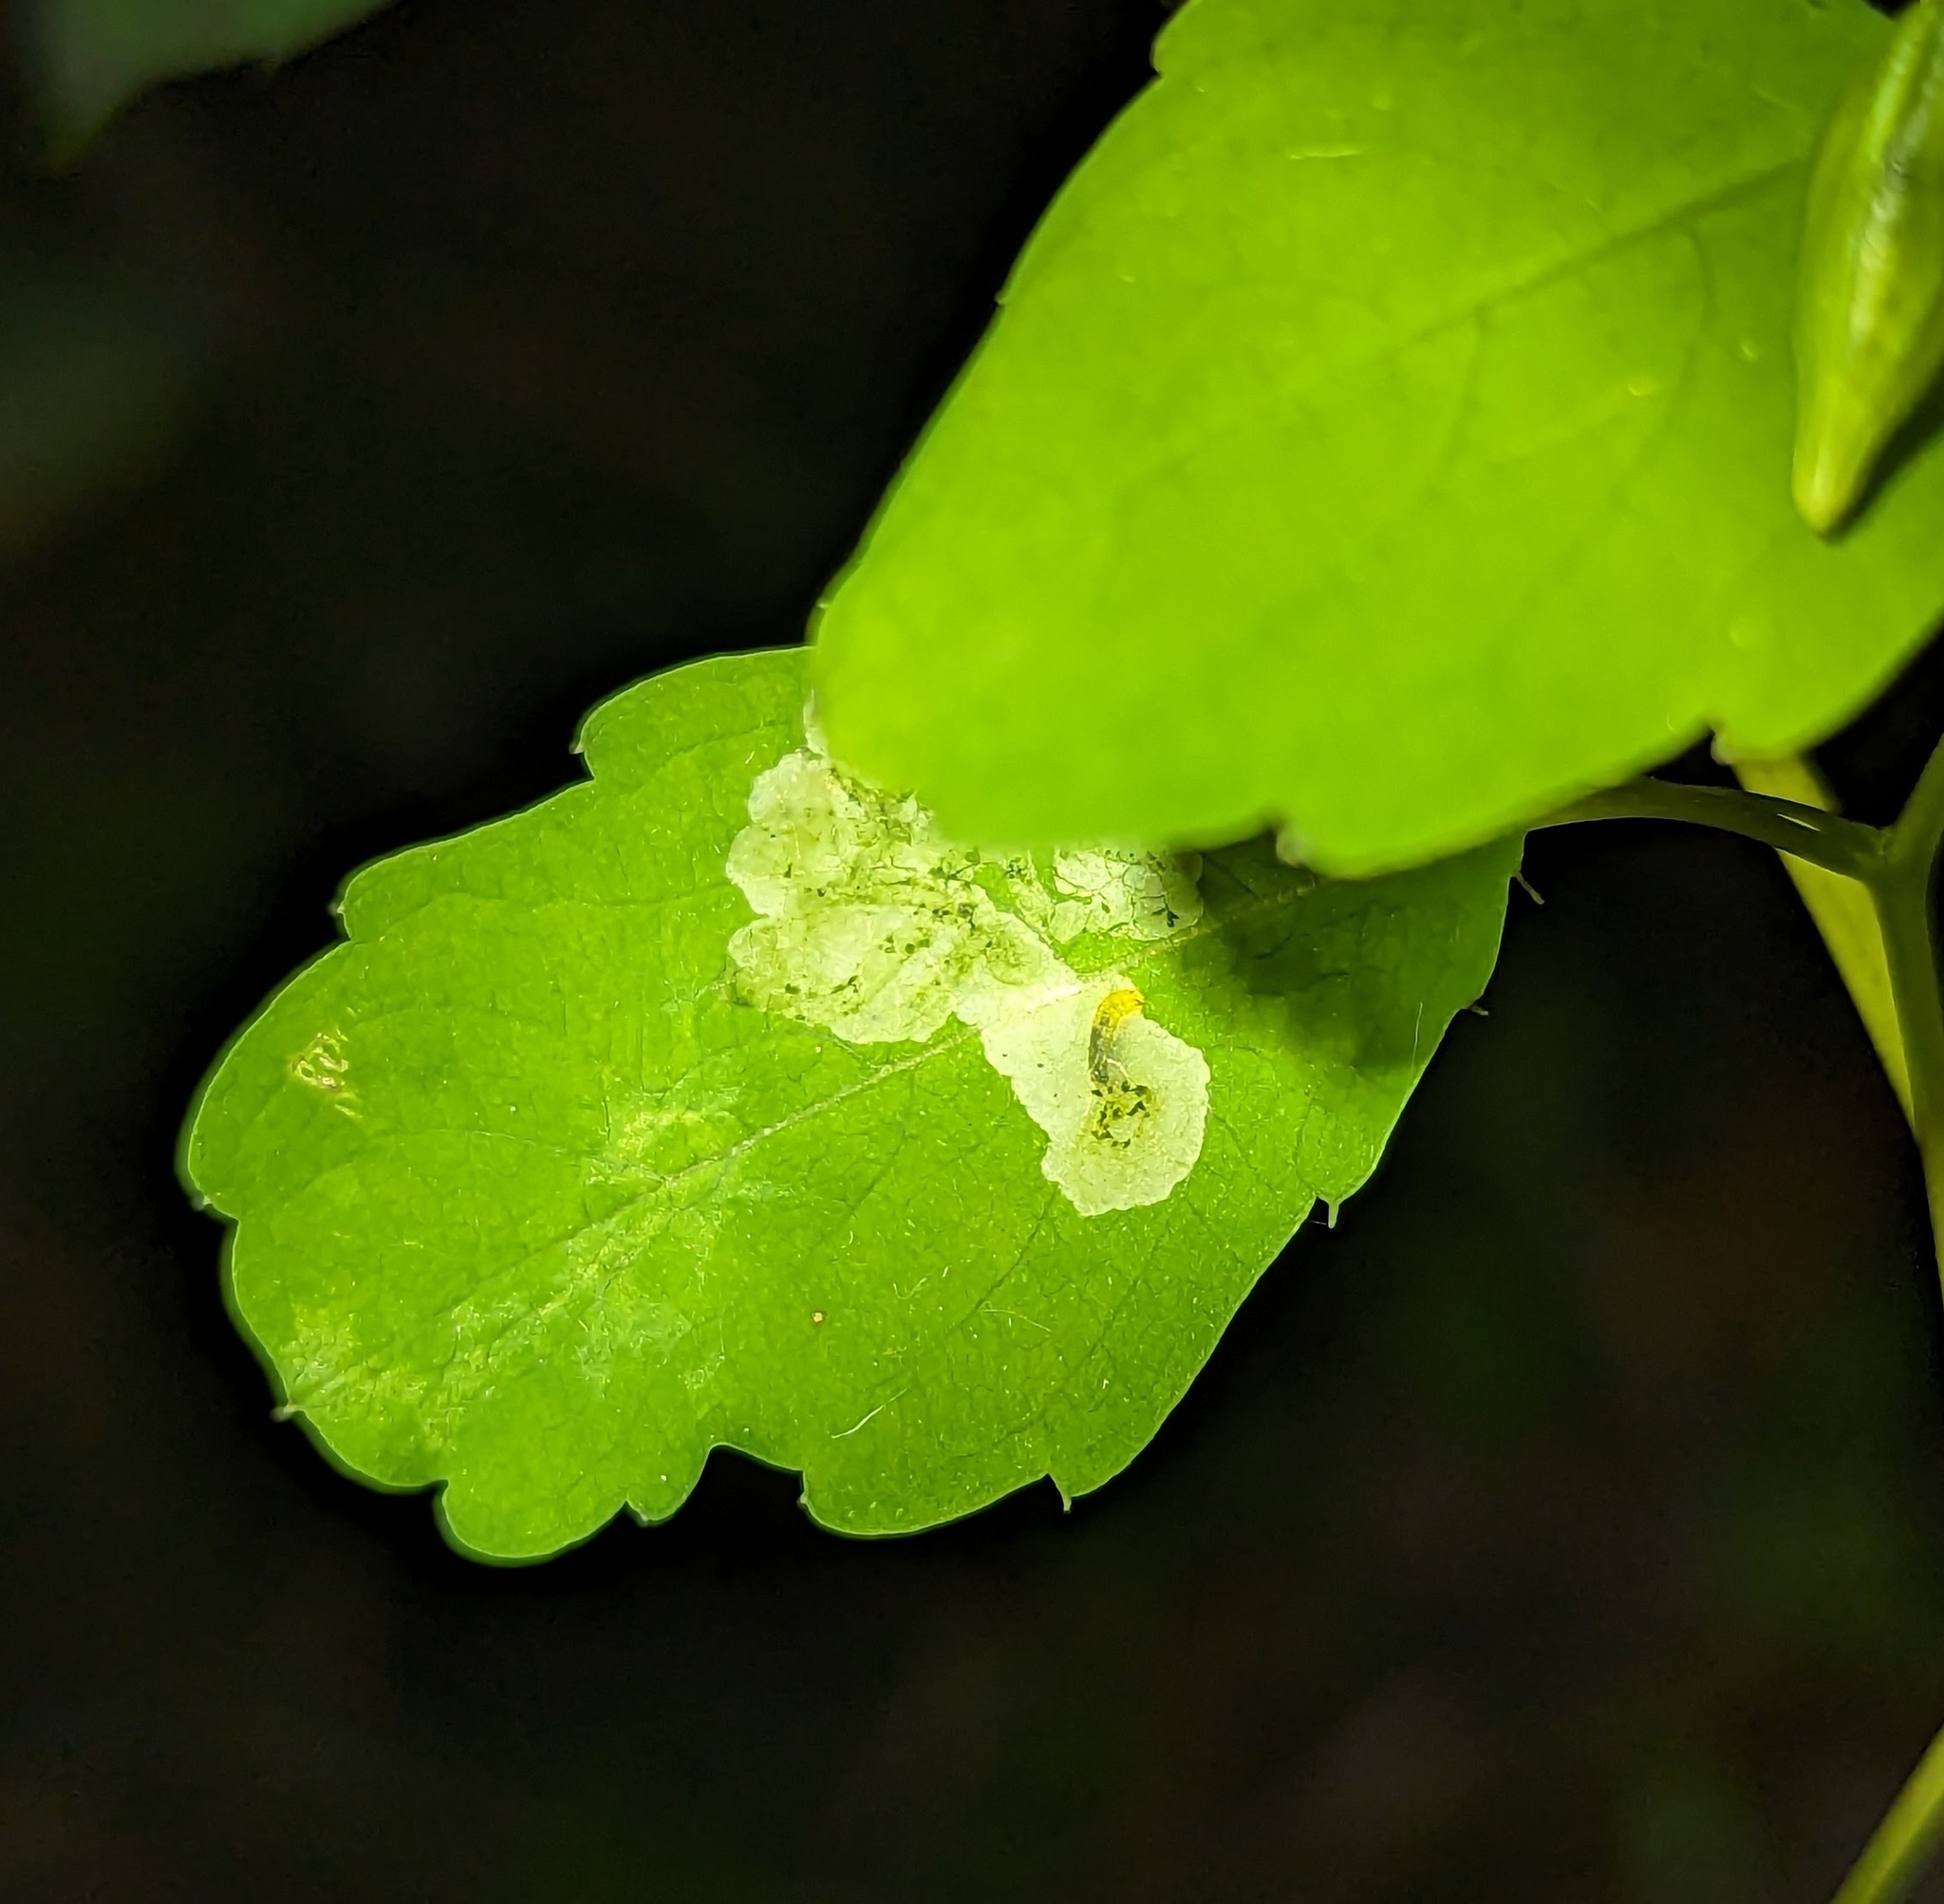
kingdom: Animalia
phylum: Arthropoda
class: Insecta
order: Diptera
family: Agromyzidae
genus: Phytoliriomyza
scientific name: Phytoliriomyza melampyga
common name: Jewelweed leaf-miner fly
